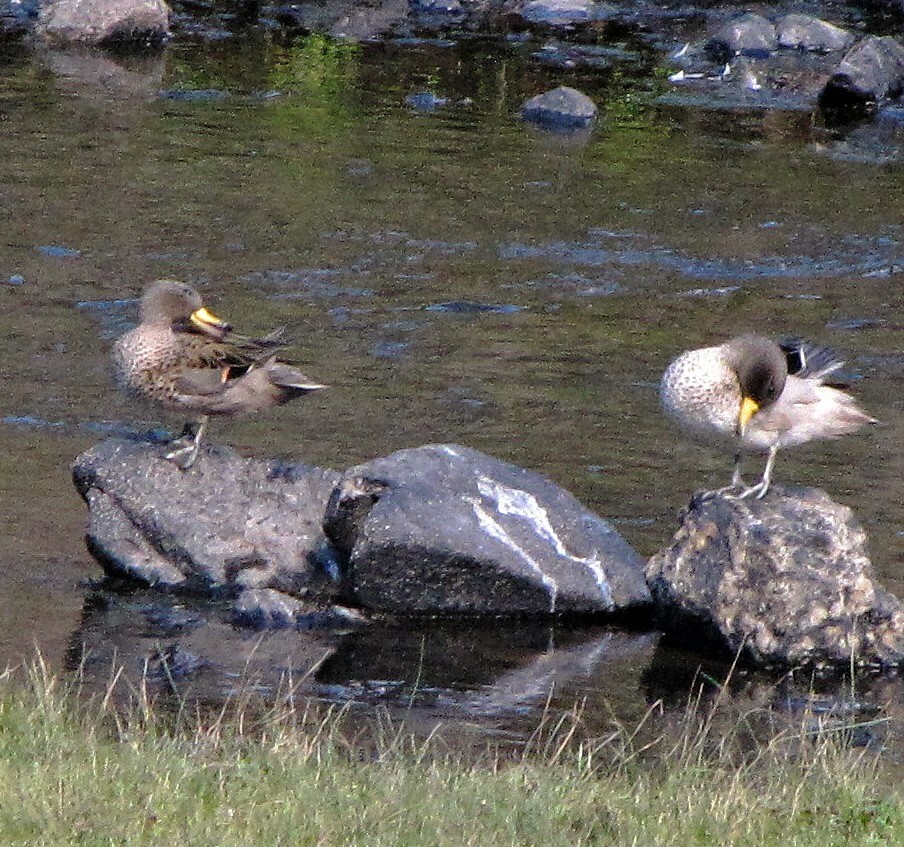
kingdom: Animalia
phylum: Chordata
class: Aves
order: Anseriformes
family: Anatidae
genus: Anas
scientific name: Anas flavirostris
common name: Yellow-billed teal
